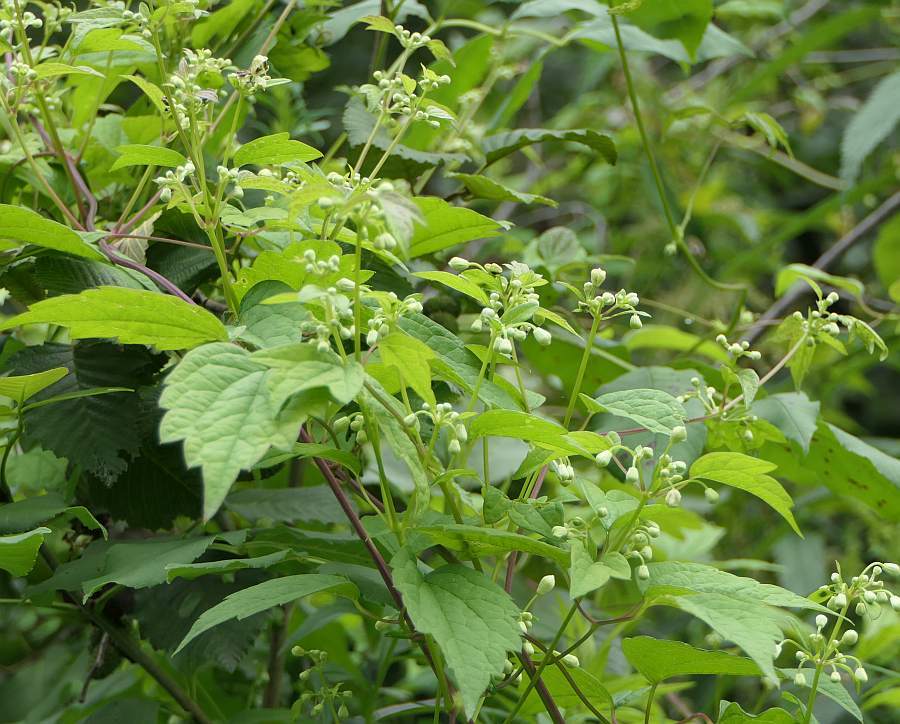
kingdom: Plantae
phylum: Tracheophyta
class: Magnoliopsida
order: Ranunculales
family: Ranunculaceae
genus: Clematis
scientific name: Clematis virginiana
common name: Virgin's-bower
